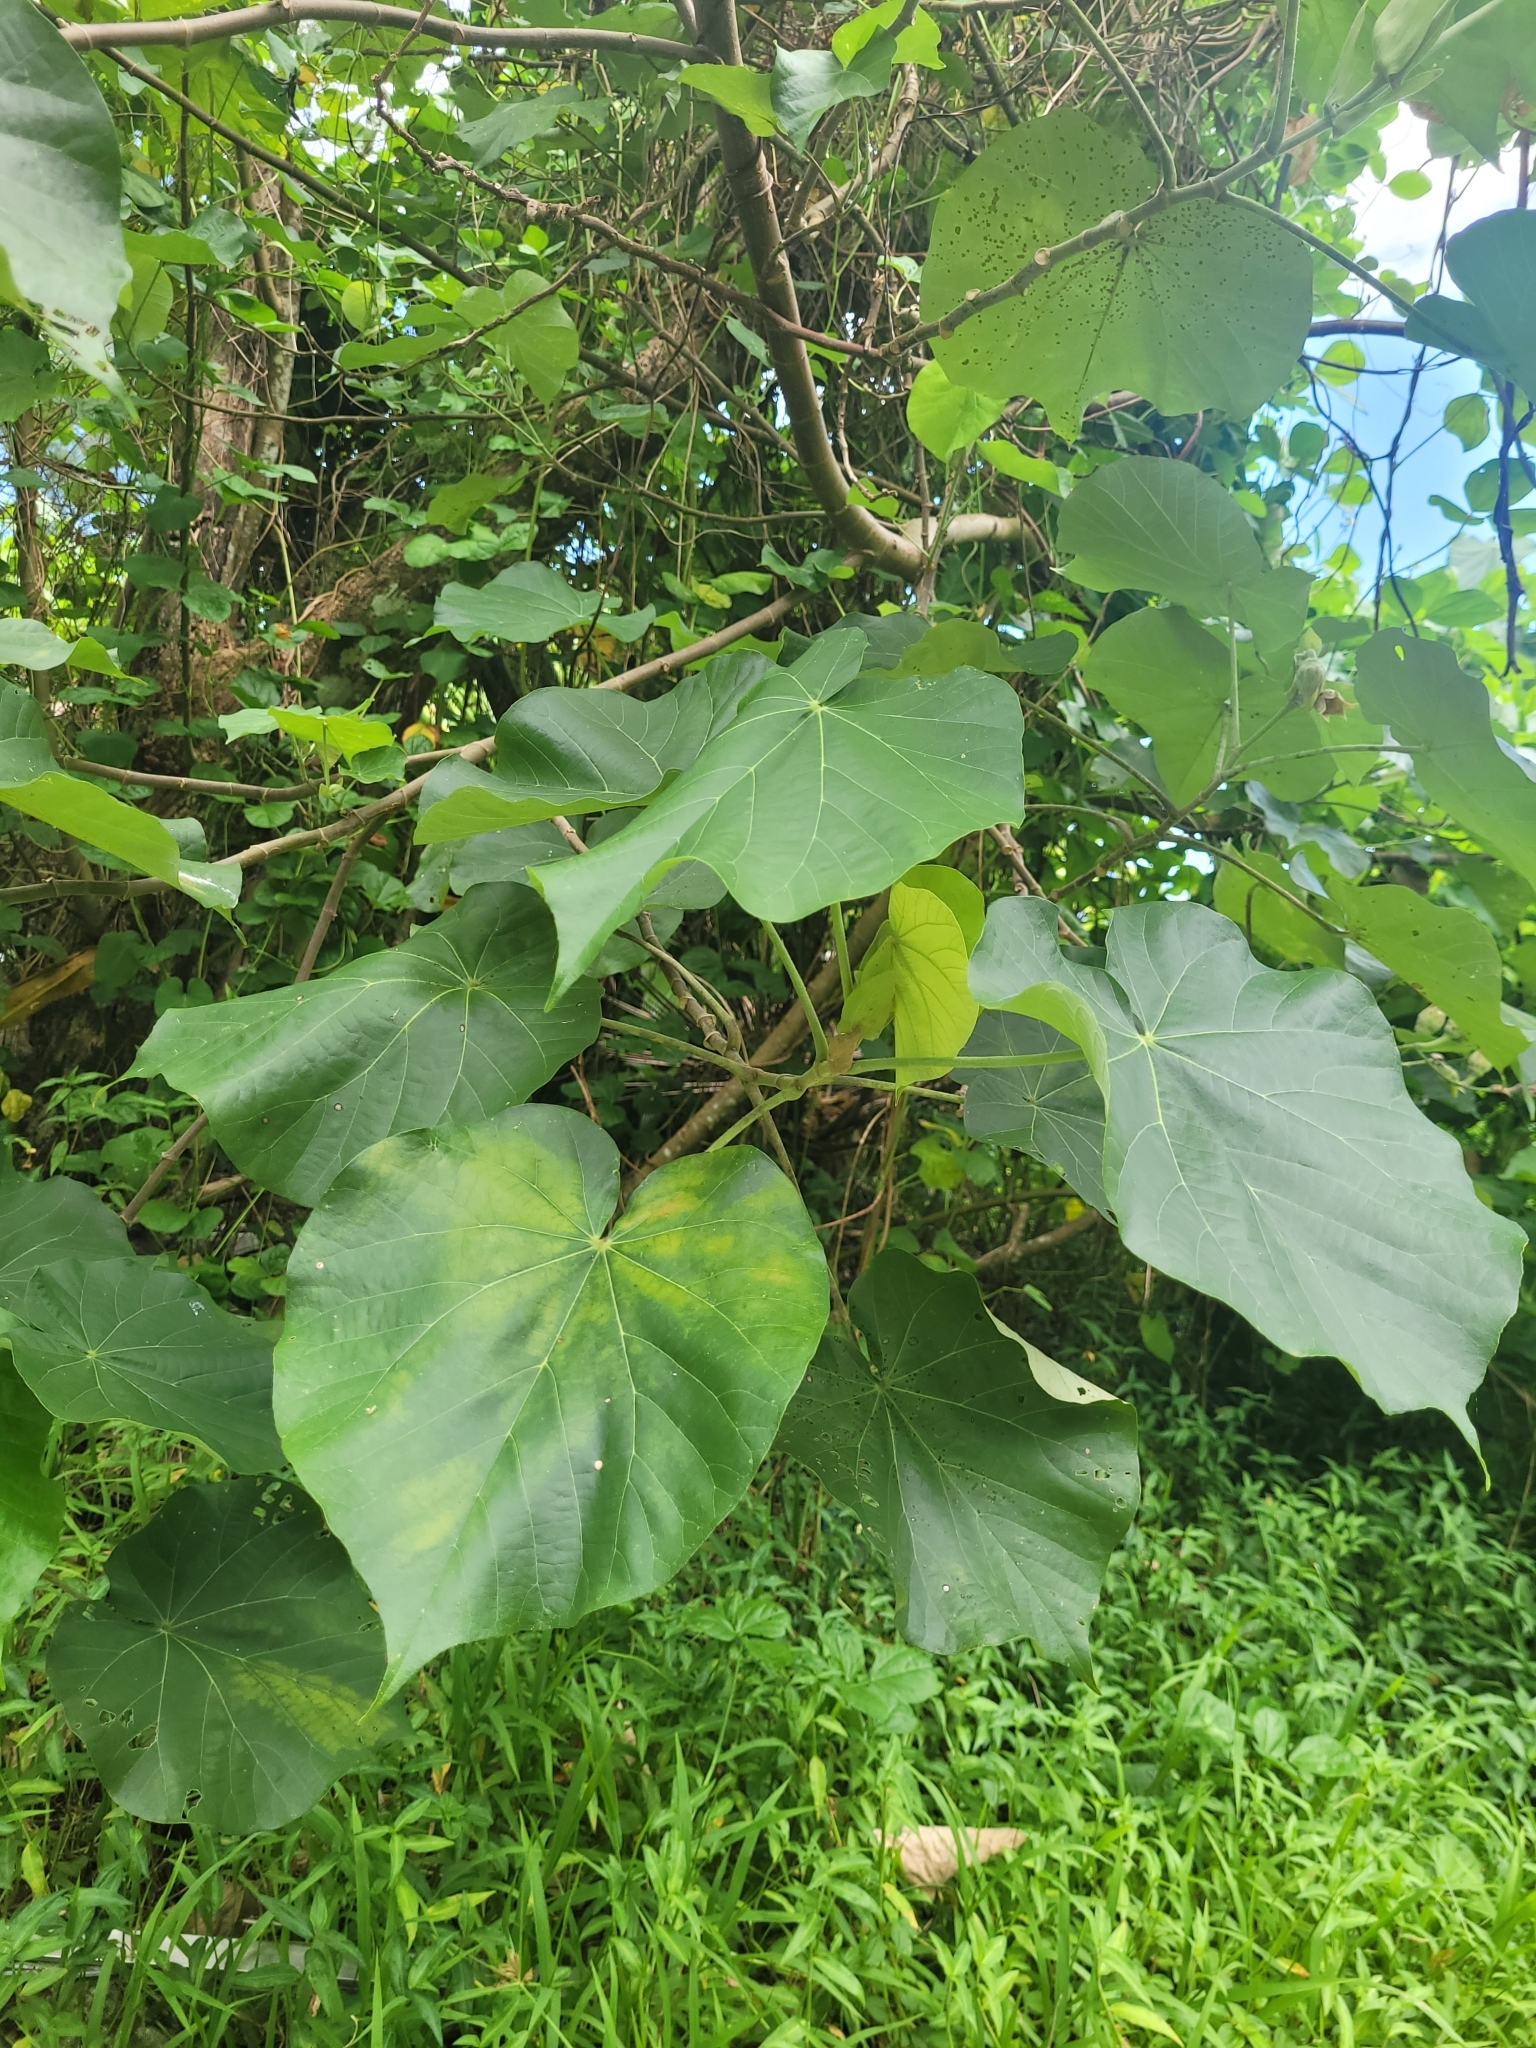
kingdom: Plantae
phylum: Tracheophyta
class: Magnoliopsida
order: Malvales
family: Malvaceae
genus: Talipariti
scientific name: Talipariti tiliaceum
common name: Sea hibiscus
